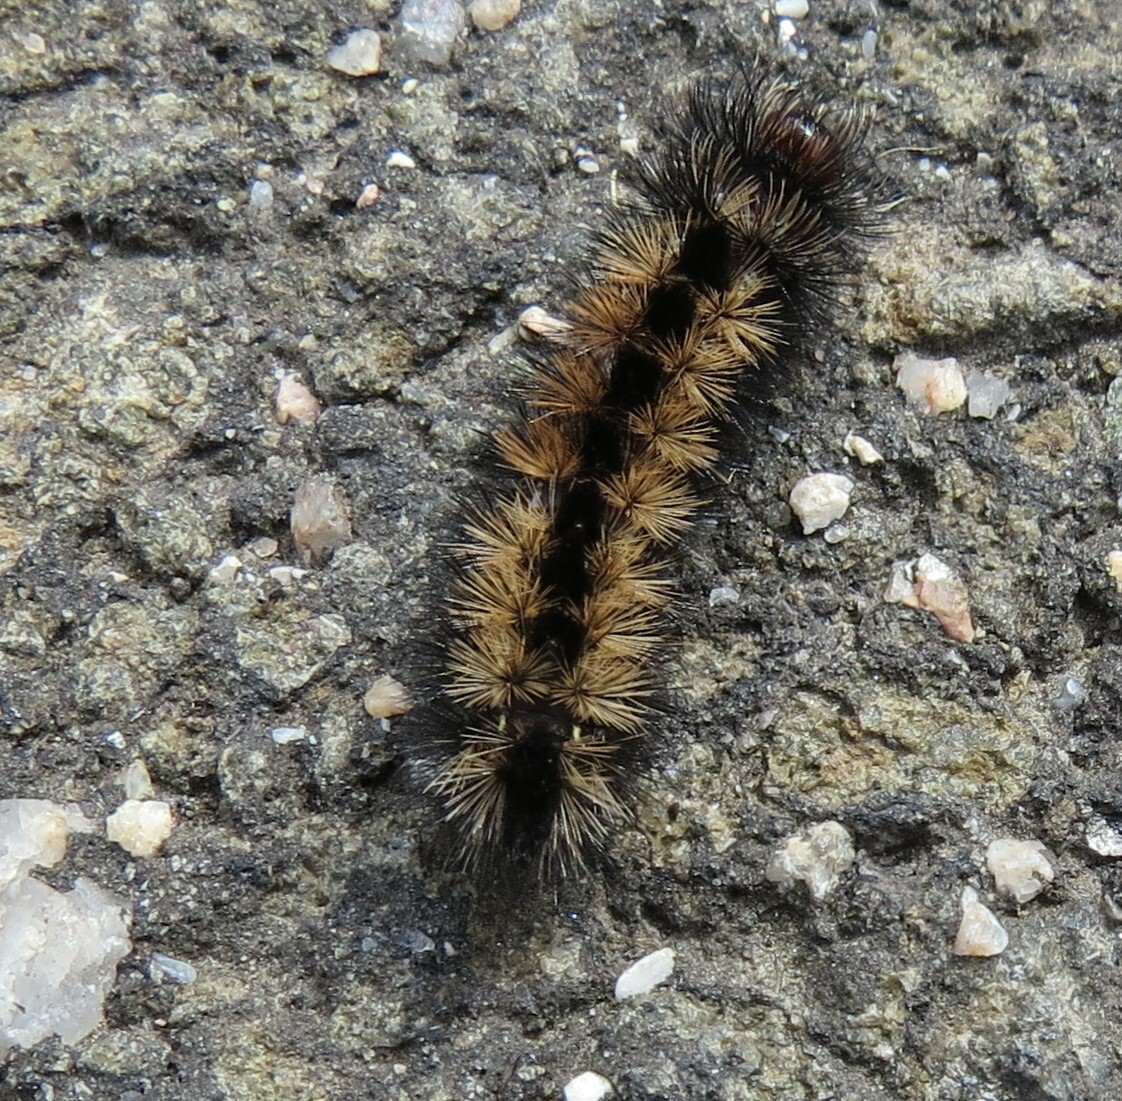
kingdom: Animalia
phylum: Arthropoda
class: Insecta
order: Lepidoptera
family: Erebidae
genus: Ctenucha
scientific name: Ctenucha virginica
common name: Virginia ctenucha moth
